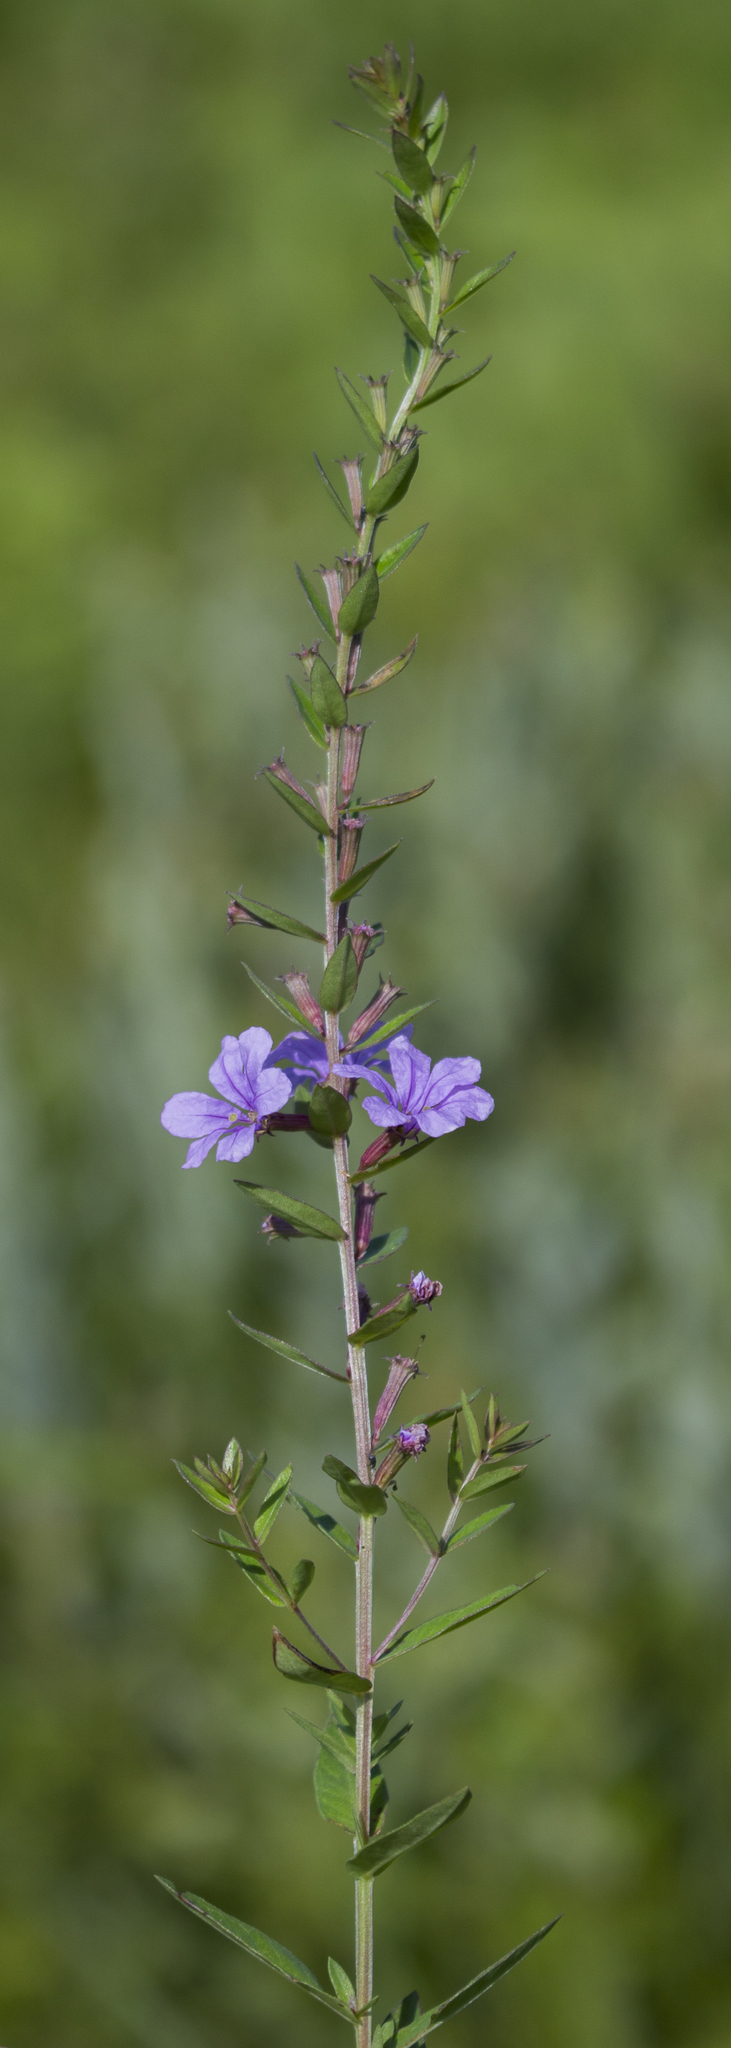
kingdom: Plantae
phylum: Tracheophyta
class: Magnoliopsida
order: Myrtales
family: Lythraceae
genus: Lythrum
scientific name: Lythrum alatum
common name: Winged loosestrife
